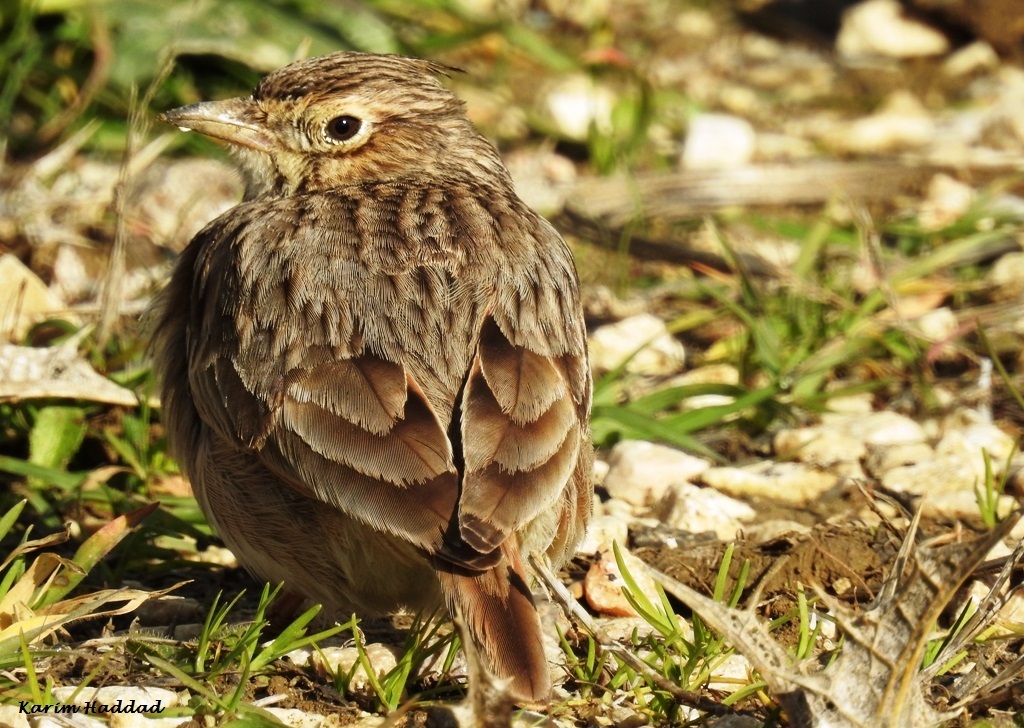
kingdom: Animalia
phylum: Chordata
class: Aves
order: Passeriformes
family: Alaudidae
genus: Galerida
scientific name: Galerida theklae
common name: Thekla lark
